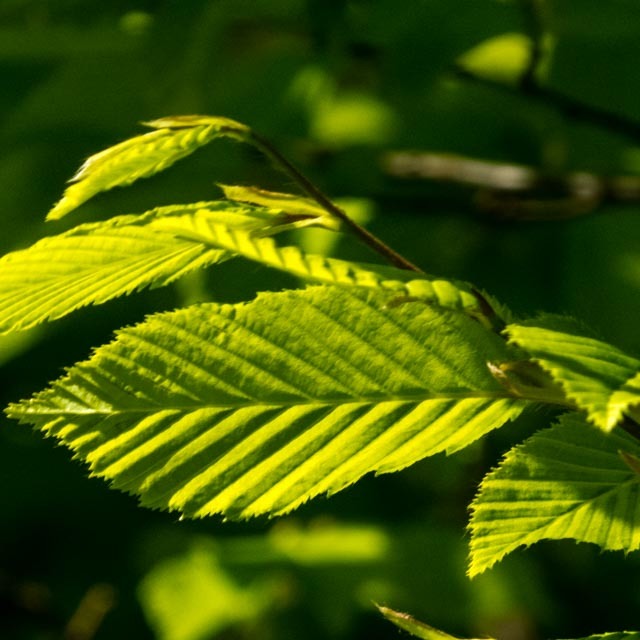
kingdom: Plantae
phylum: Tracheophyta
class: Magnoliopsida
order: Fagales
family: Betulaceae
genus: Carpinus
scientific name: Carpinus betulus
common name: Hornbeam
